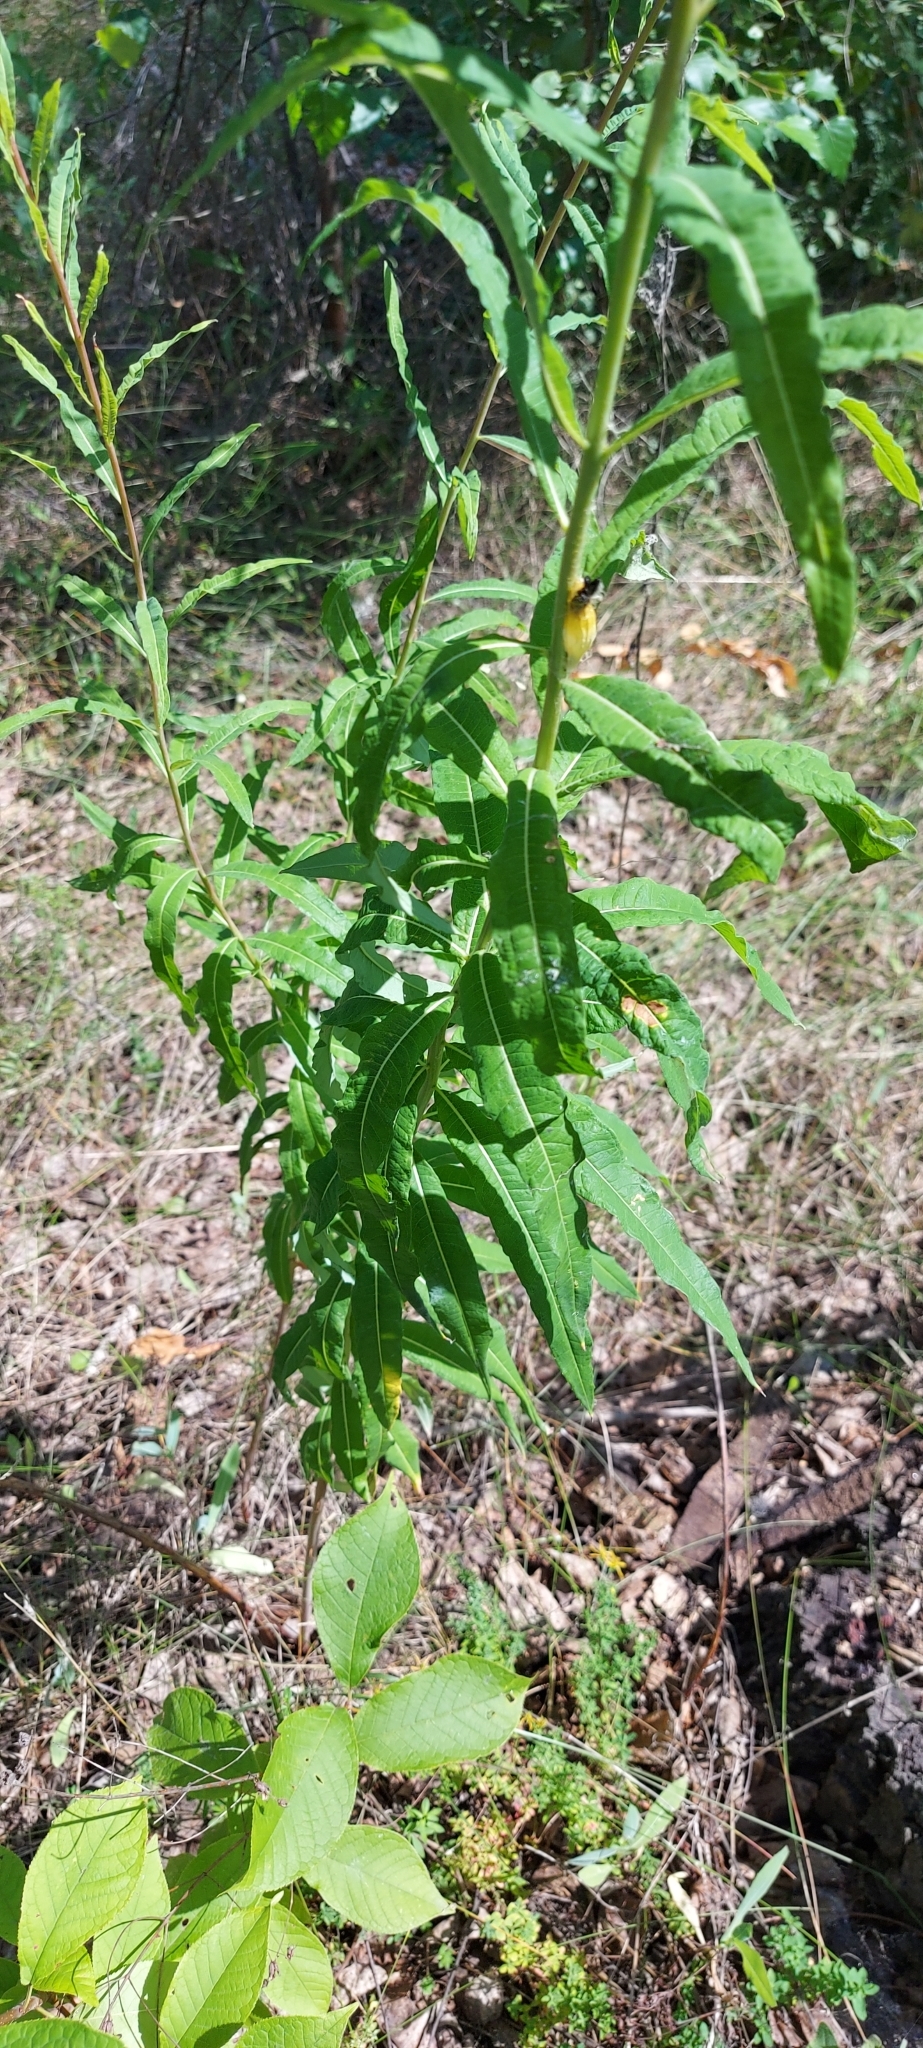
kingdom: Plantae
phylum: Tracheophyta
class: Magnoliopsida
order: Myrtales
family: Onagraceae
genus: Chamaenerion
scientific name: Chamaenerion angustifolium
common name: Fireweed
